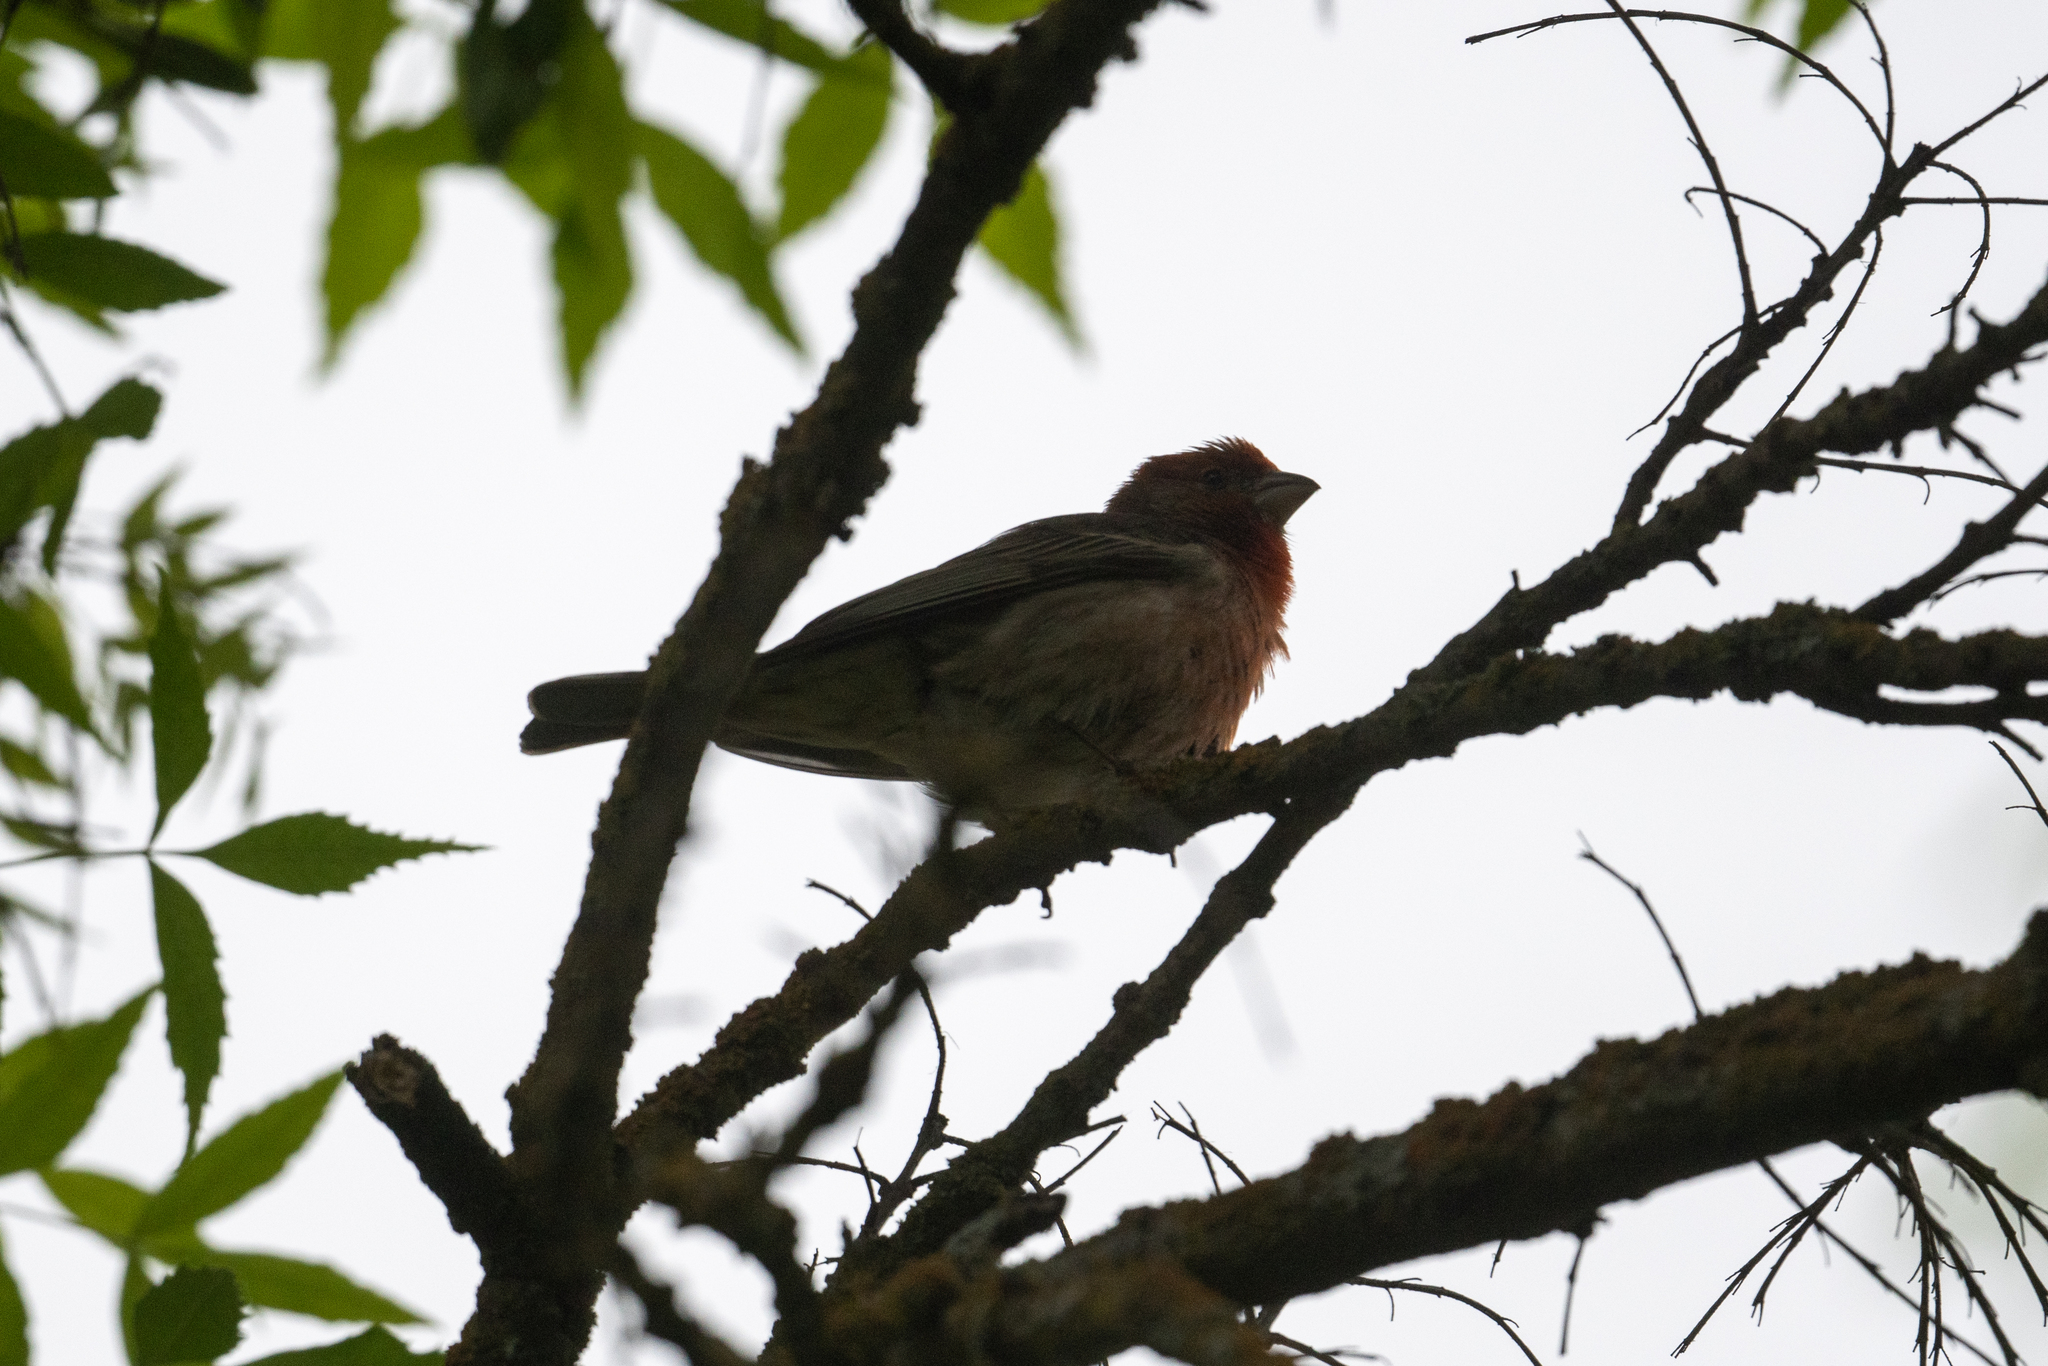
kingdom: Animalia
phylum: Chordata
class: Aves
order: Passeriformes
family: Fringillidae
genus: Haemorhous
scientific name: Haemorhous mexicanus
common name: House finch
